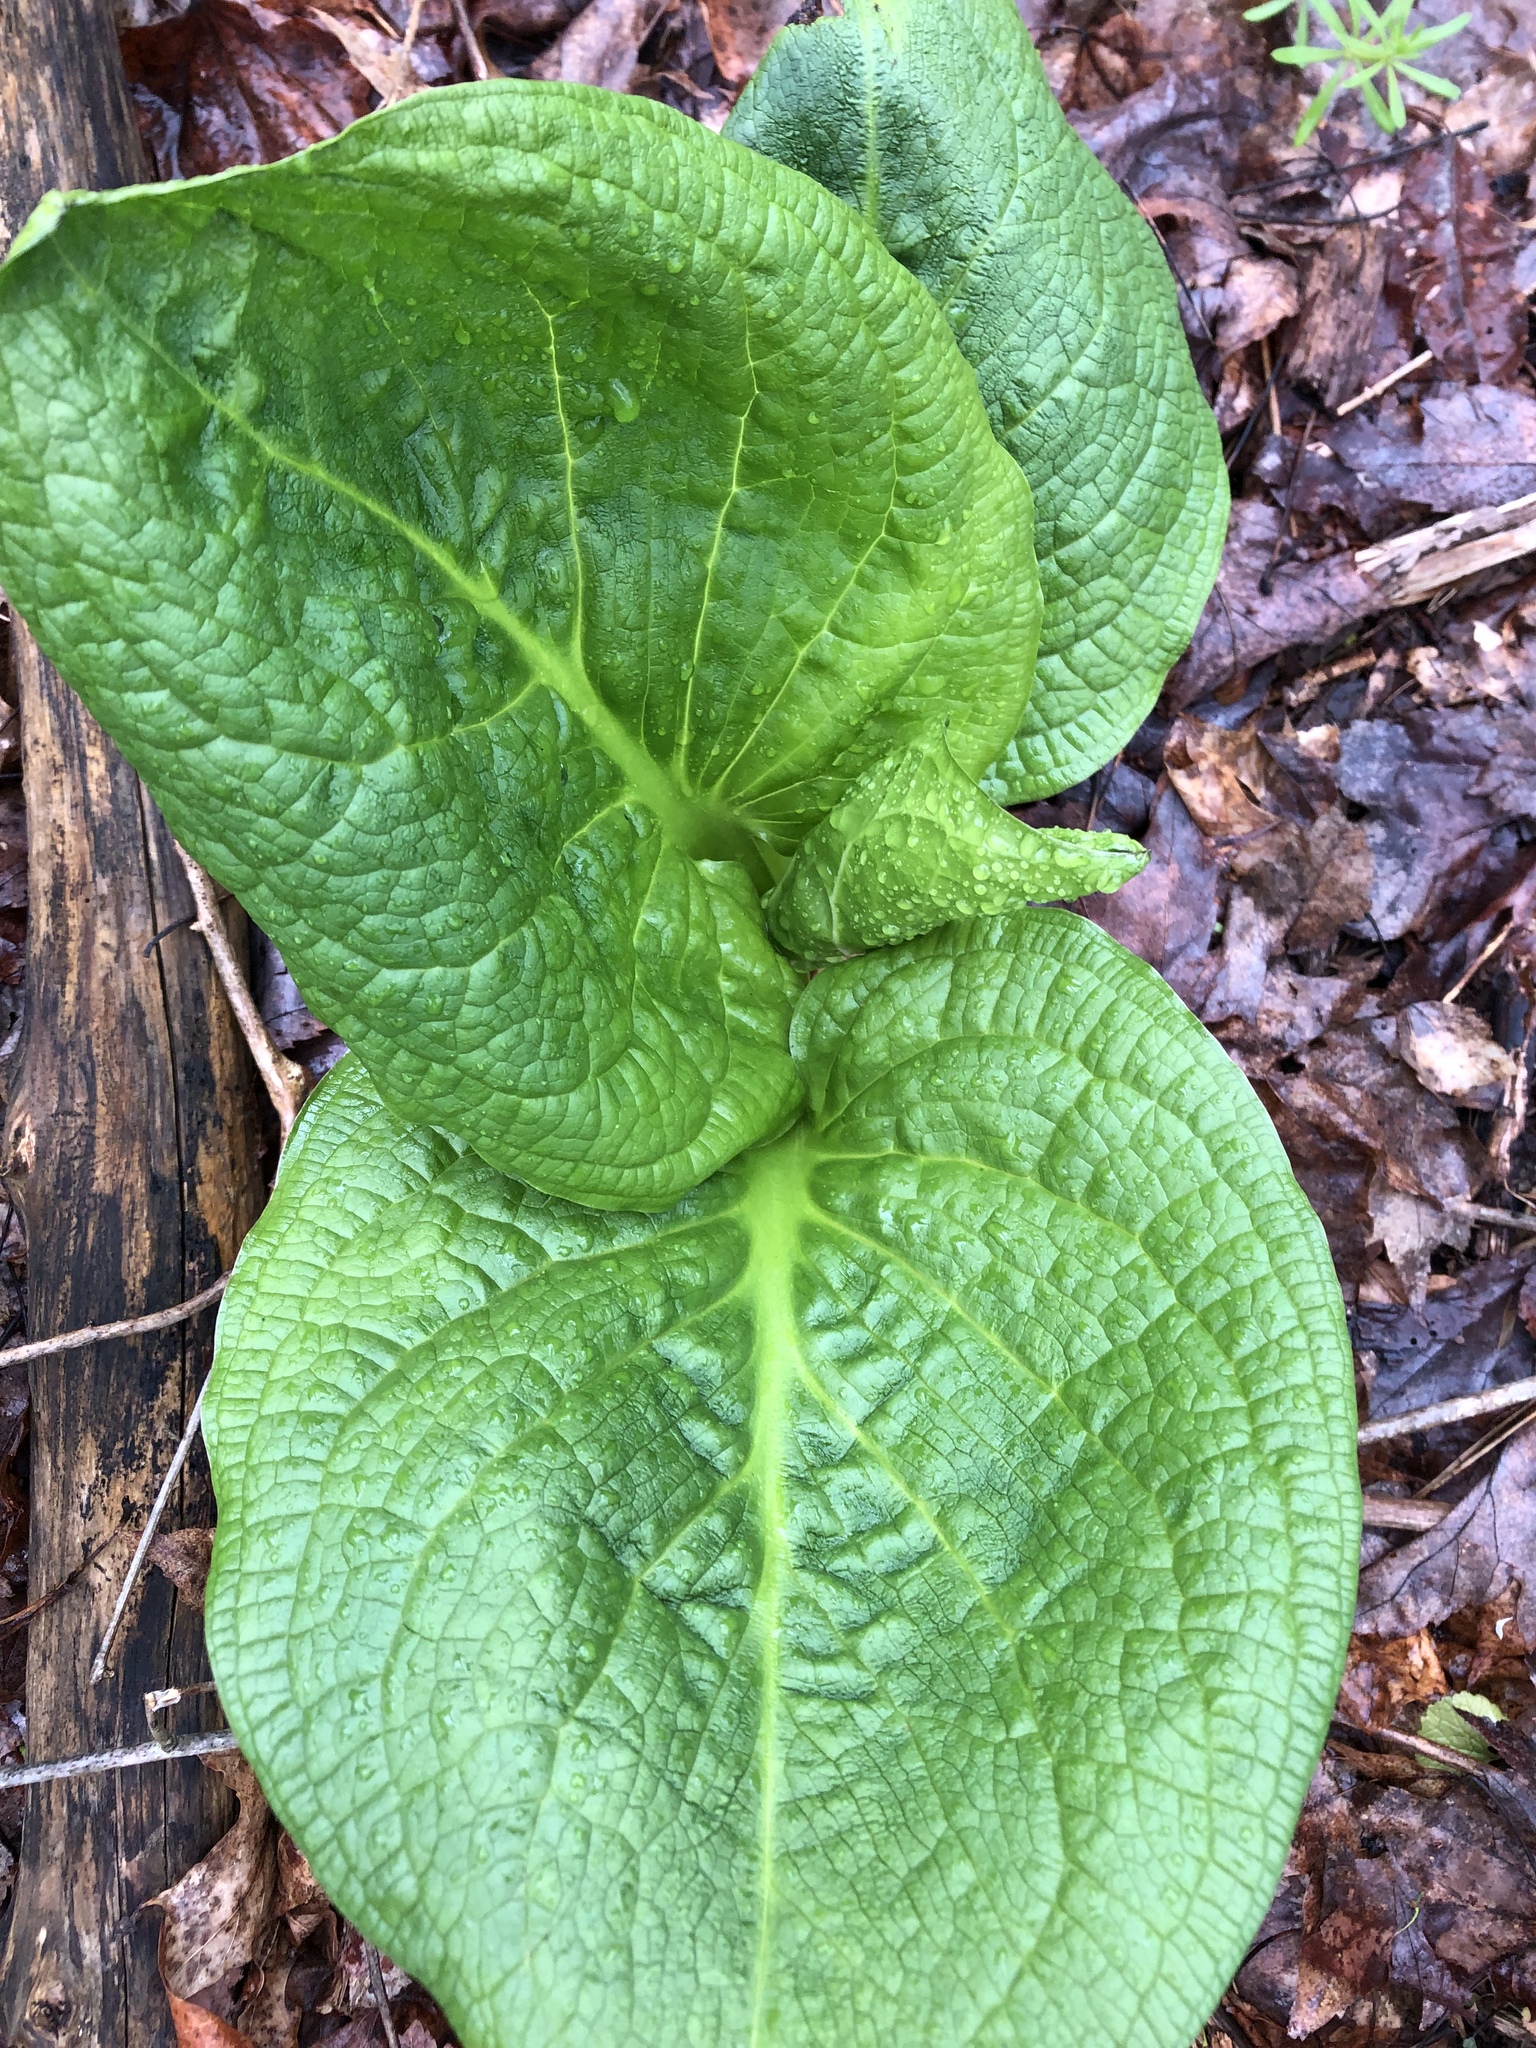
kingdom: Plantae
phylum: Tracheophyta
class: Liliopsida
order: Alismatales
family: Araceae
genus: Symplocarpus
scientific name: Symplocarpus foetidus
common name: Eastern skunk cabbage
